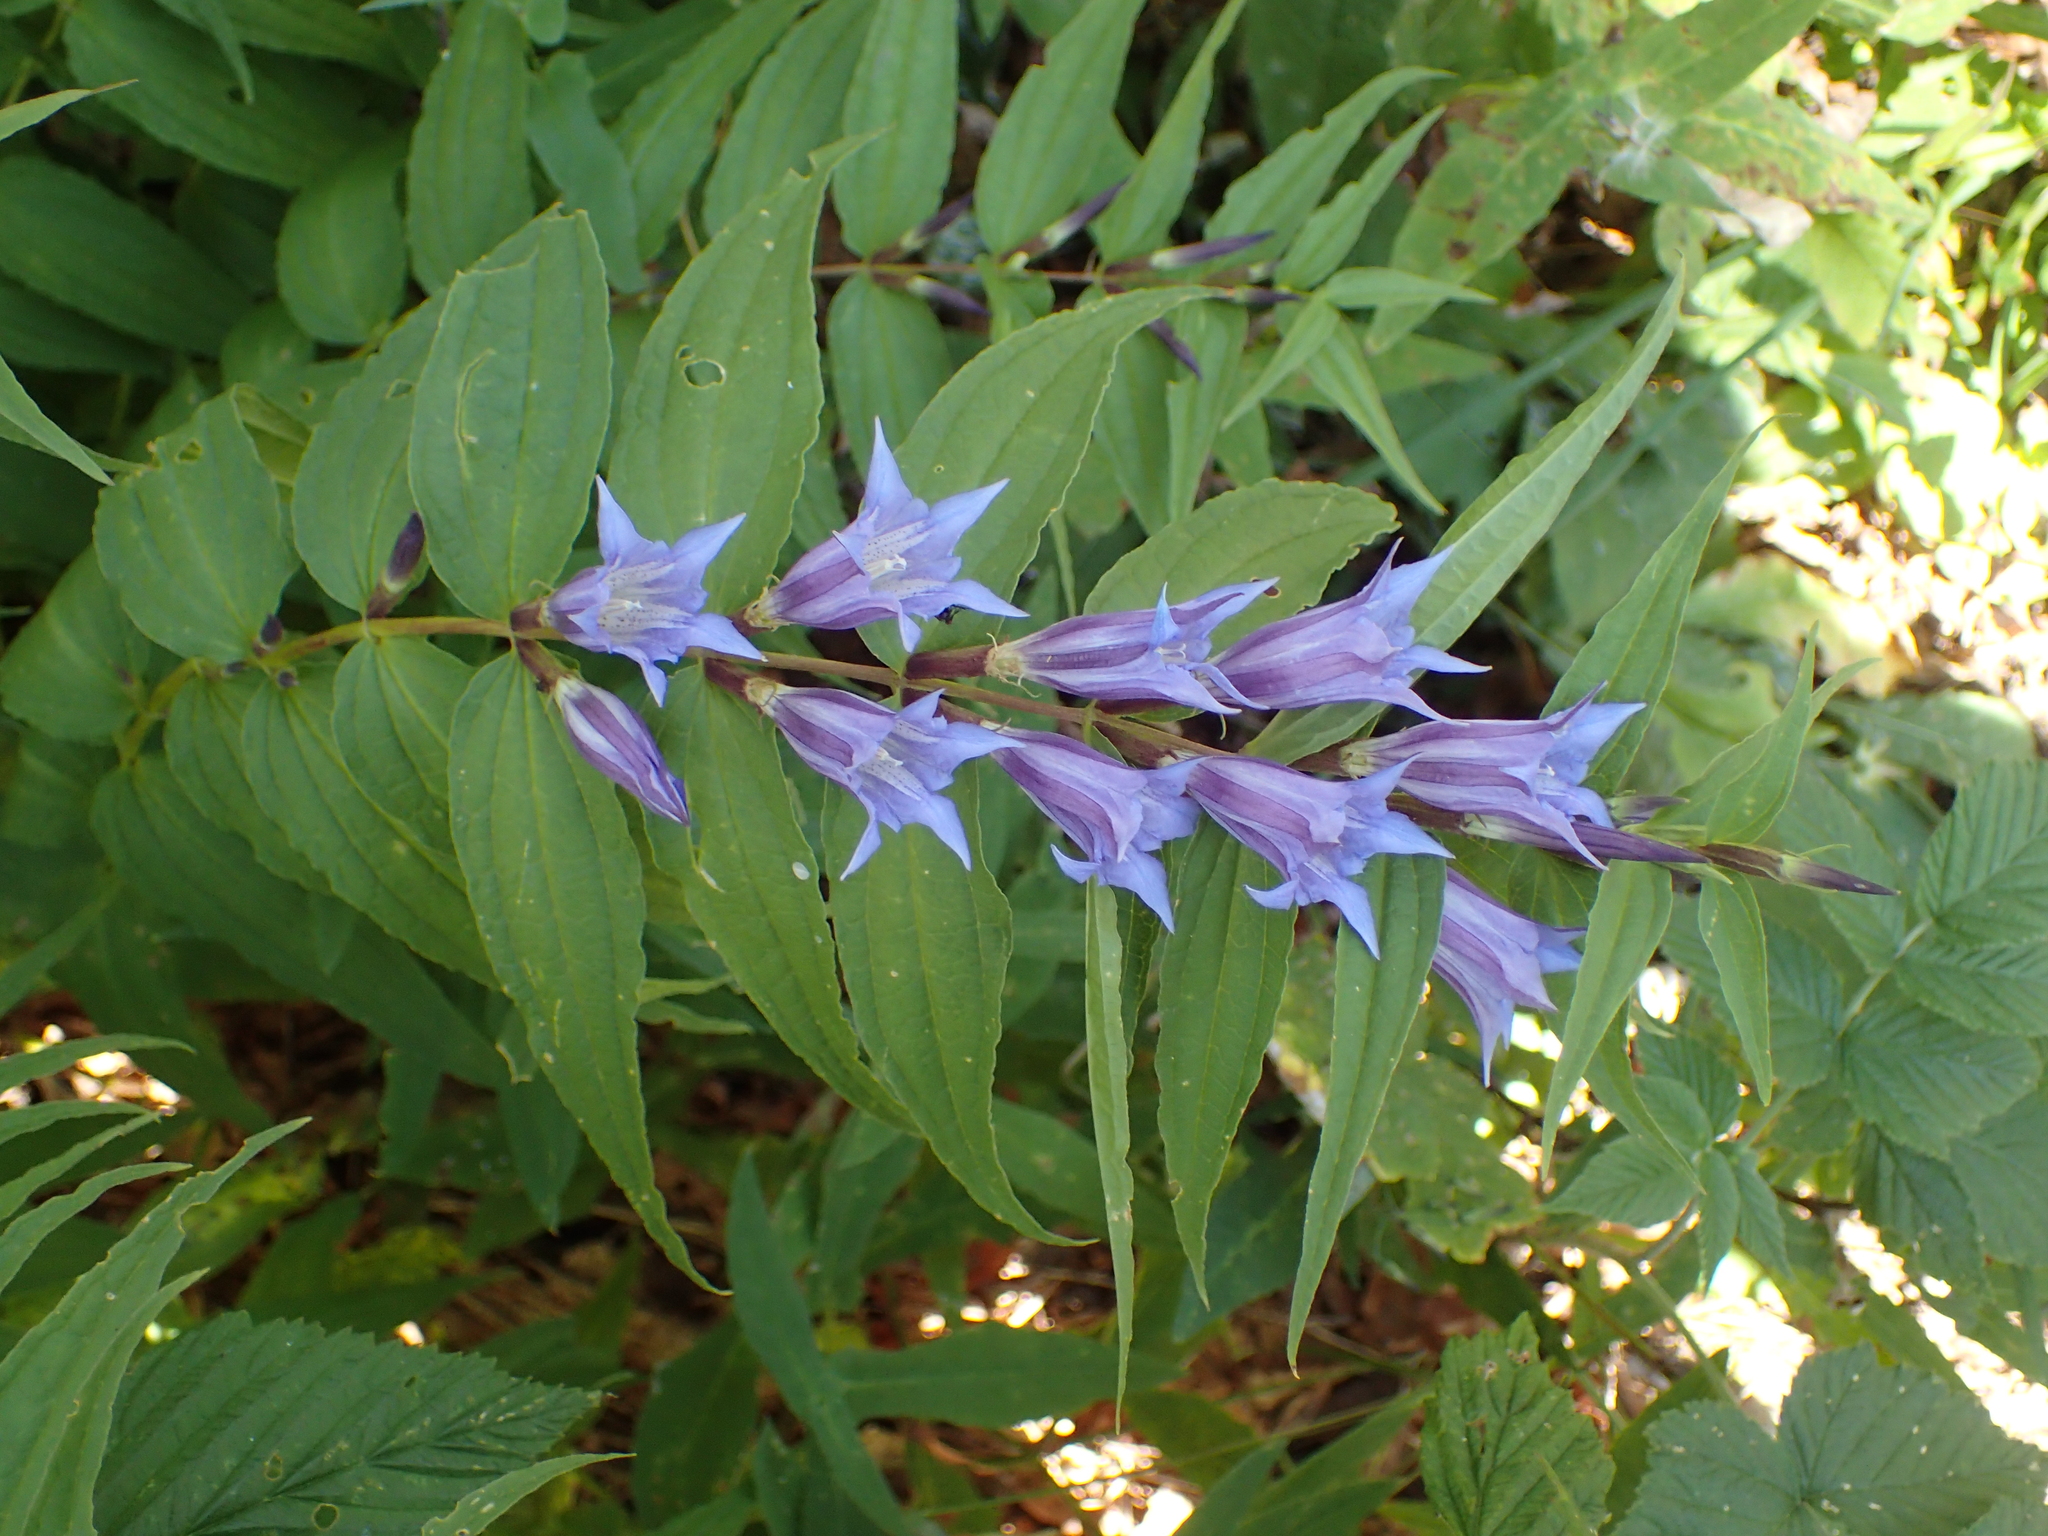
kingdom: Plantae
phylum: Tracheophyta
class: Magnoliopsida
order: Gentianales
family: Gentianaceae
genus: Gentiana
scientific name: Gentiana asclepiadea
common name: Willow gentian
